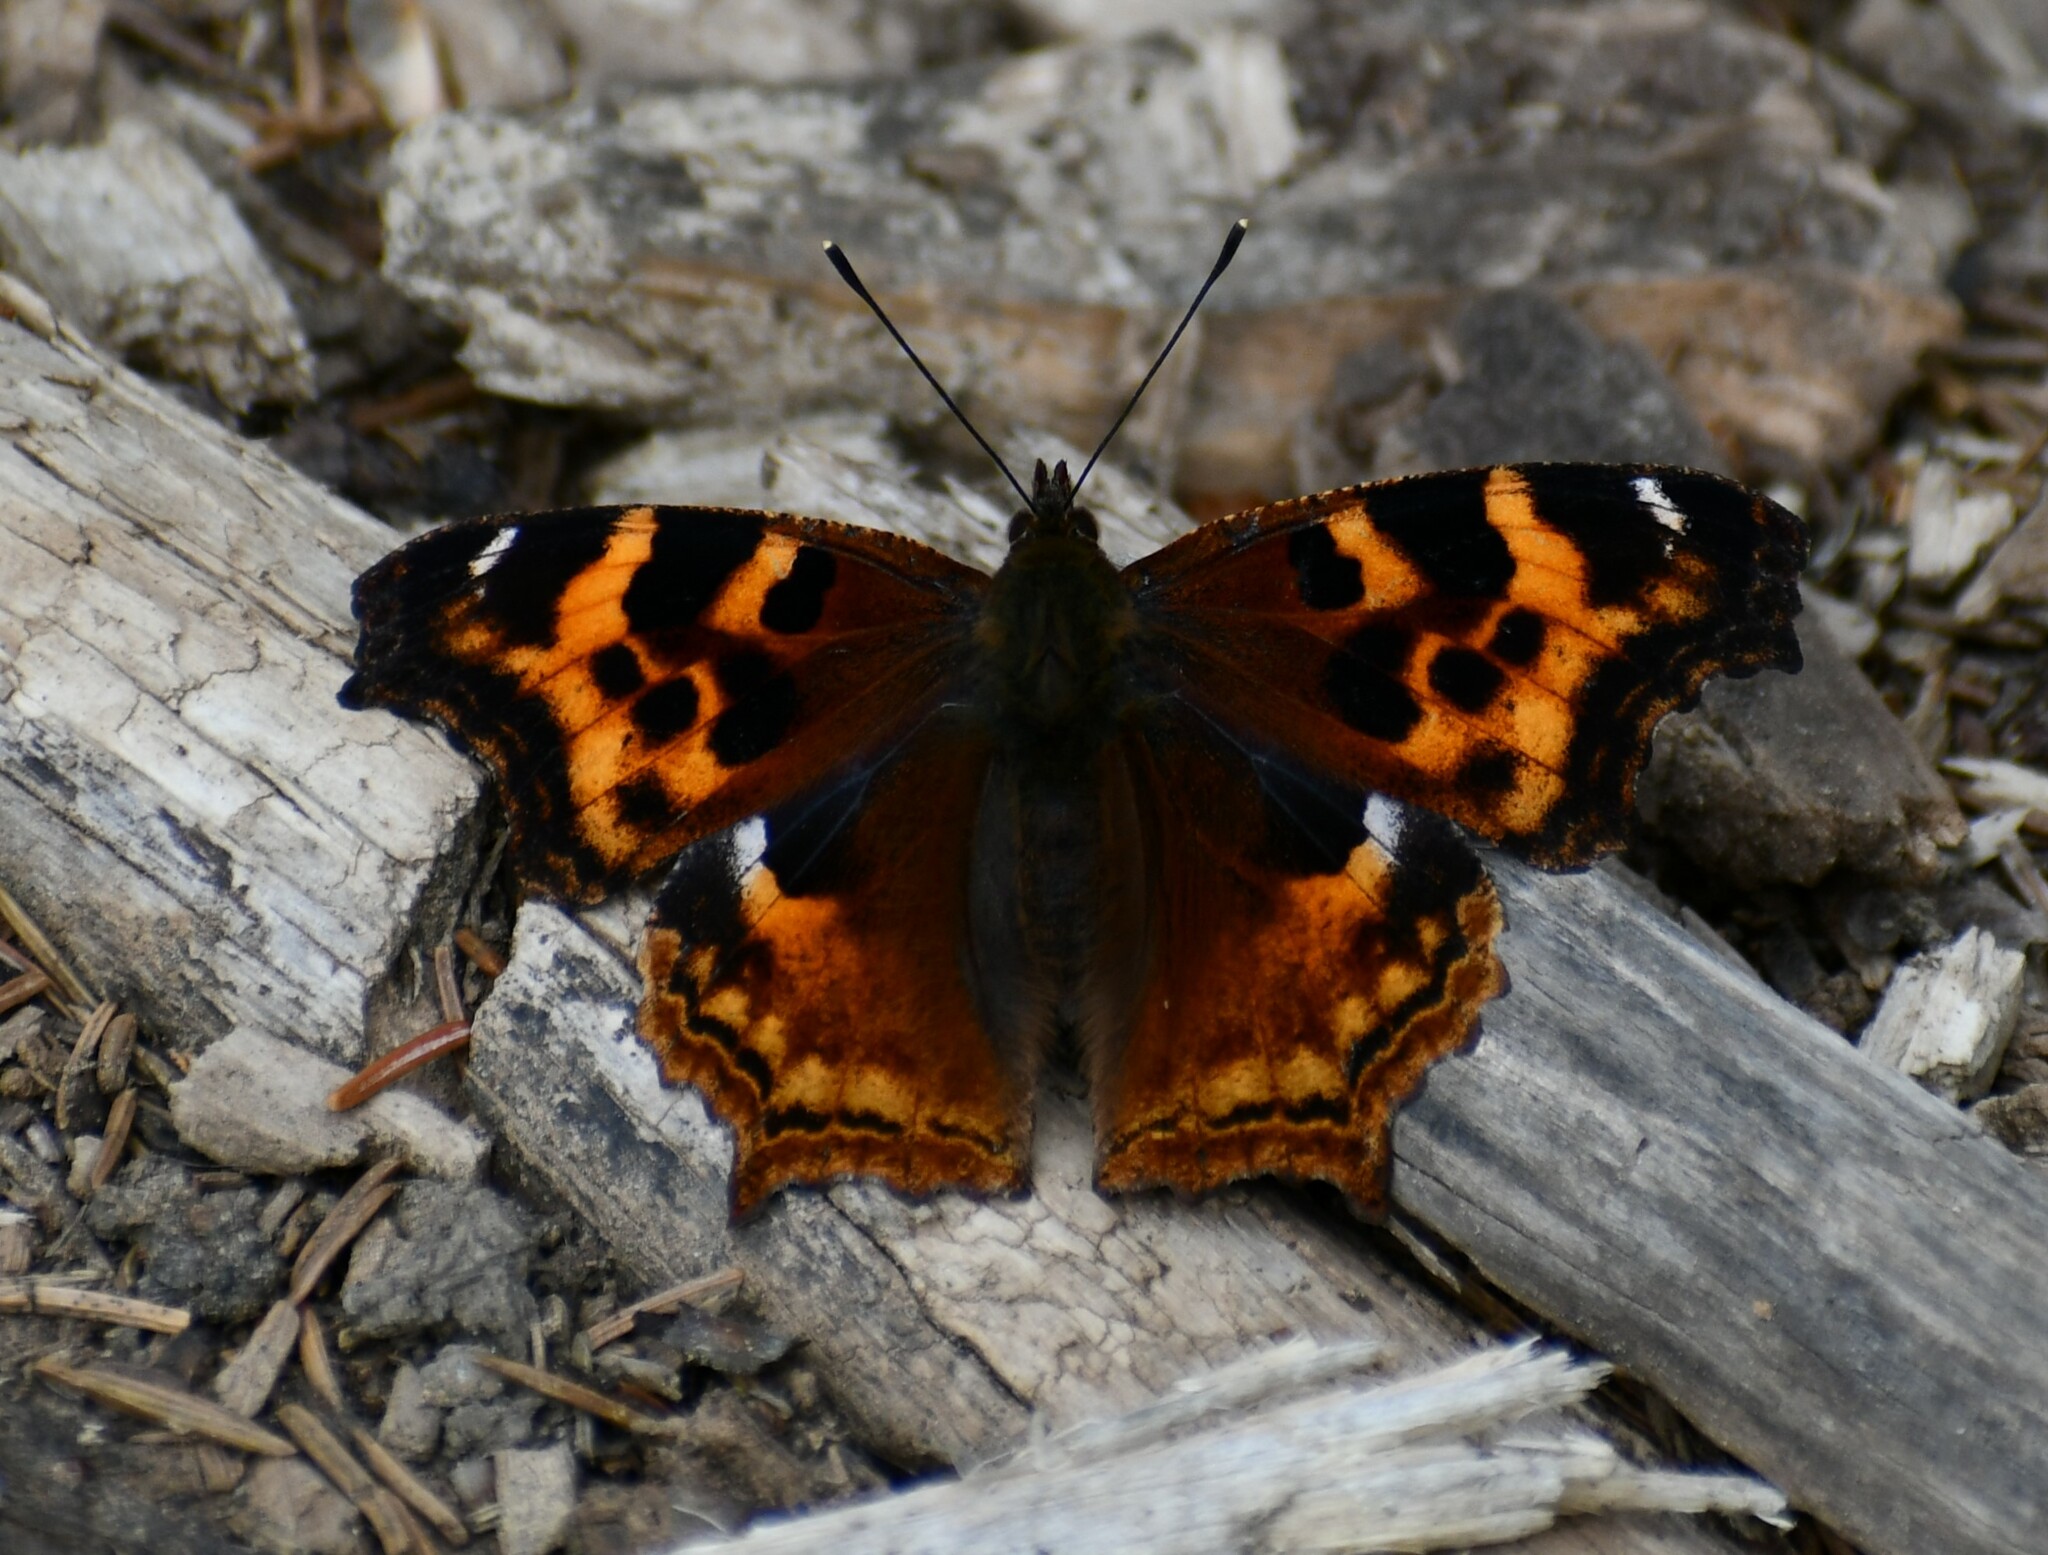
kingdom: Animalia
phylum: Arthropoda
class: Insecta
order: Lepidoptera
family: Nymphalidae
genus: Polygonia
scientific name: Polygonia vaualbum
